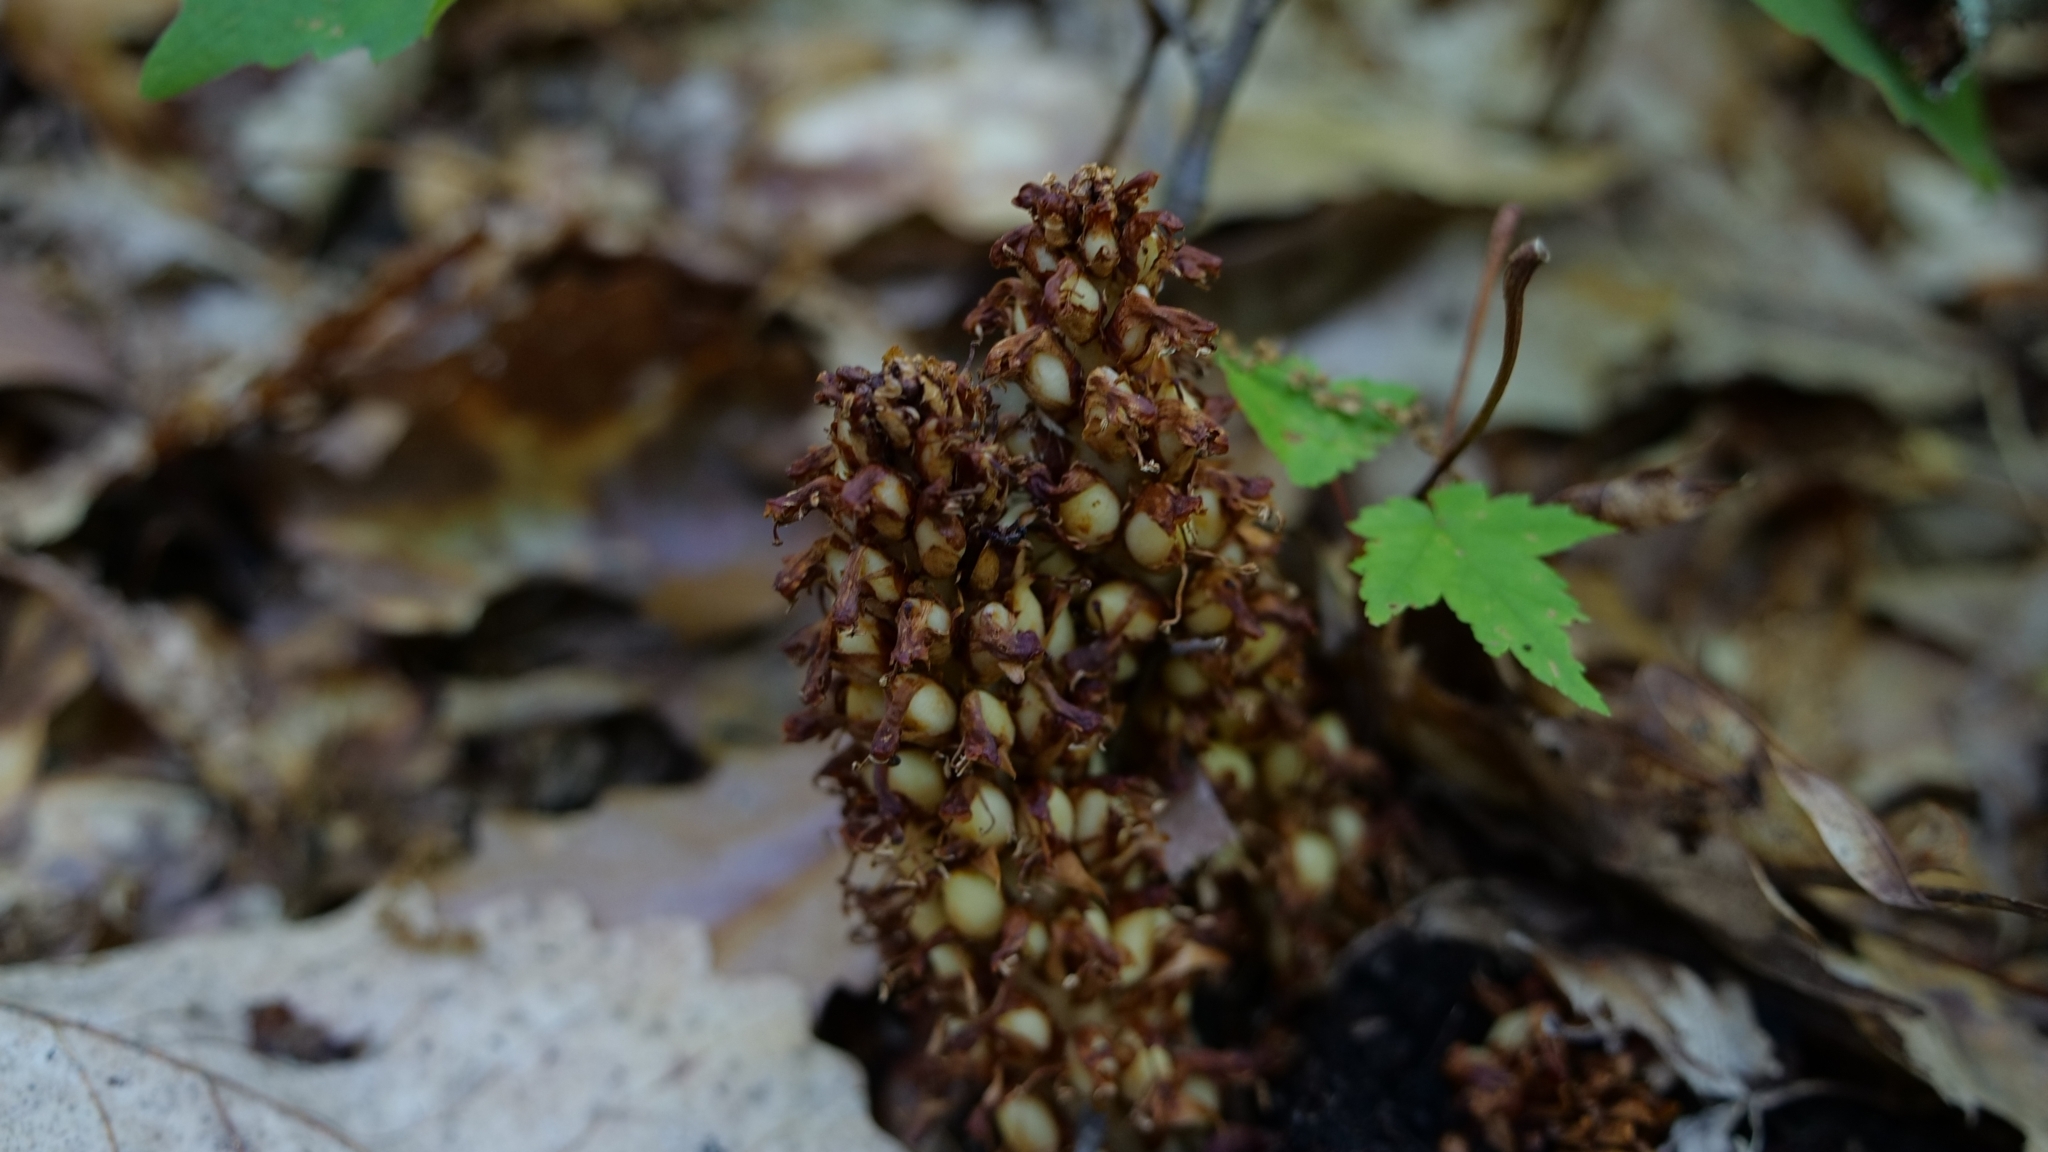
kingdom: Plantae
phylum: Tracheophyta
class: Magnoliopsida
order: Lamiales
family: Orobanchaceae
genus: Conopholis
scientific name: Conopholis americana
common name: American cancer-root
